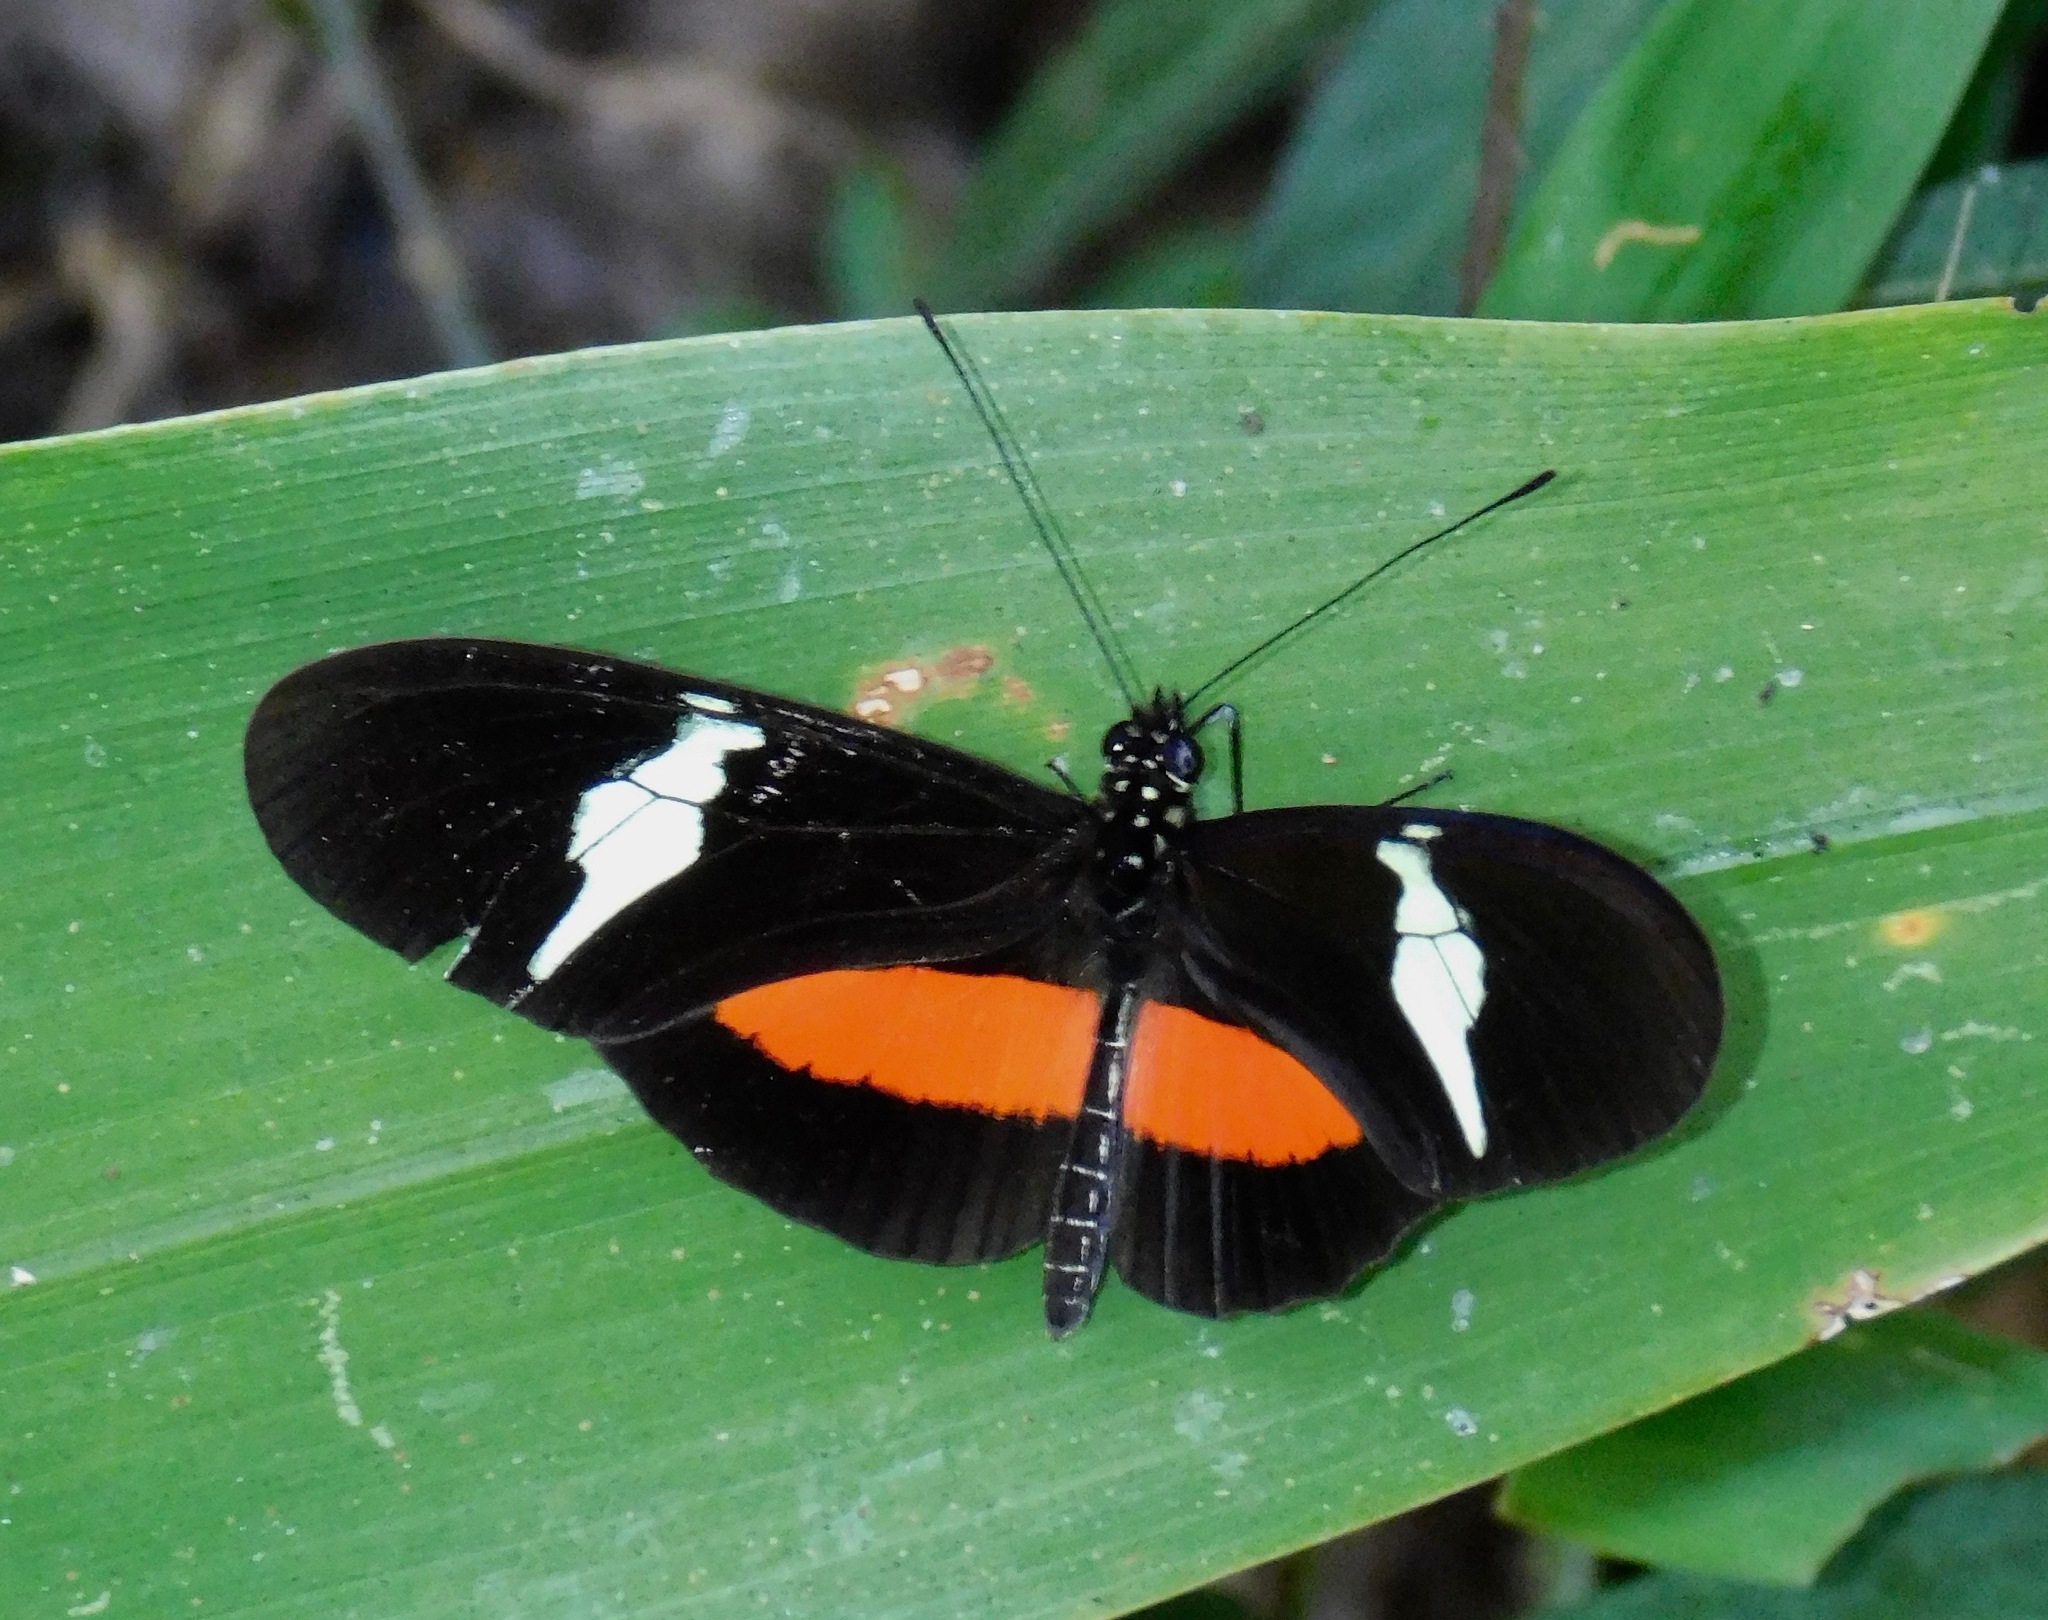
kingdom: Animalia
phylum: Arthropoda
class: Insecta
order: Lepidoptera
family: Nymphalidae
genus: Heliconius
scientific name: Heliconius clysonymus
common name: Clysonymus longwing
